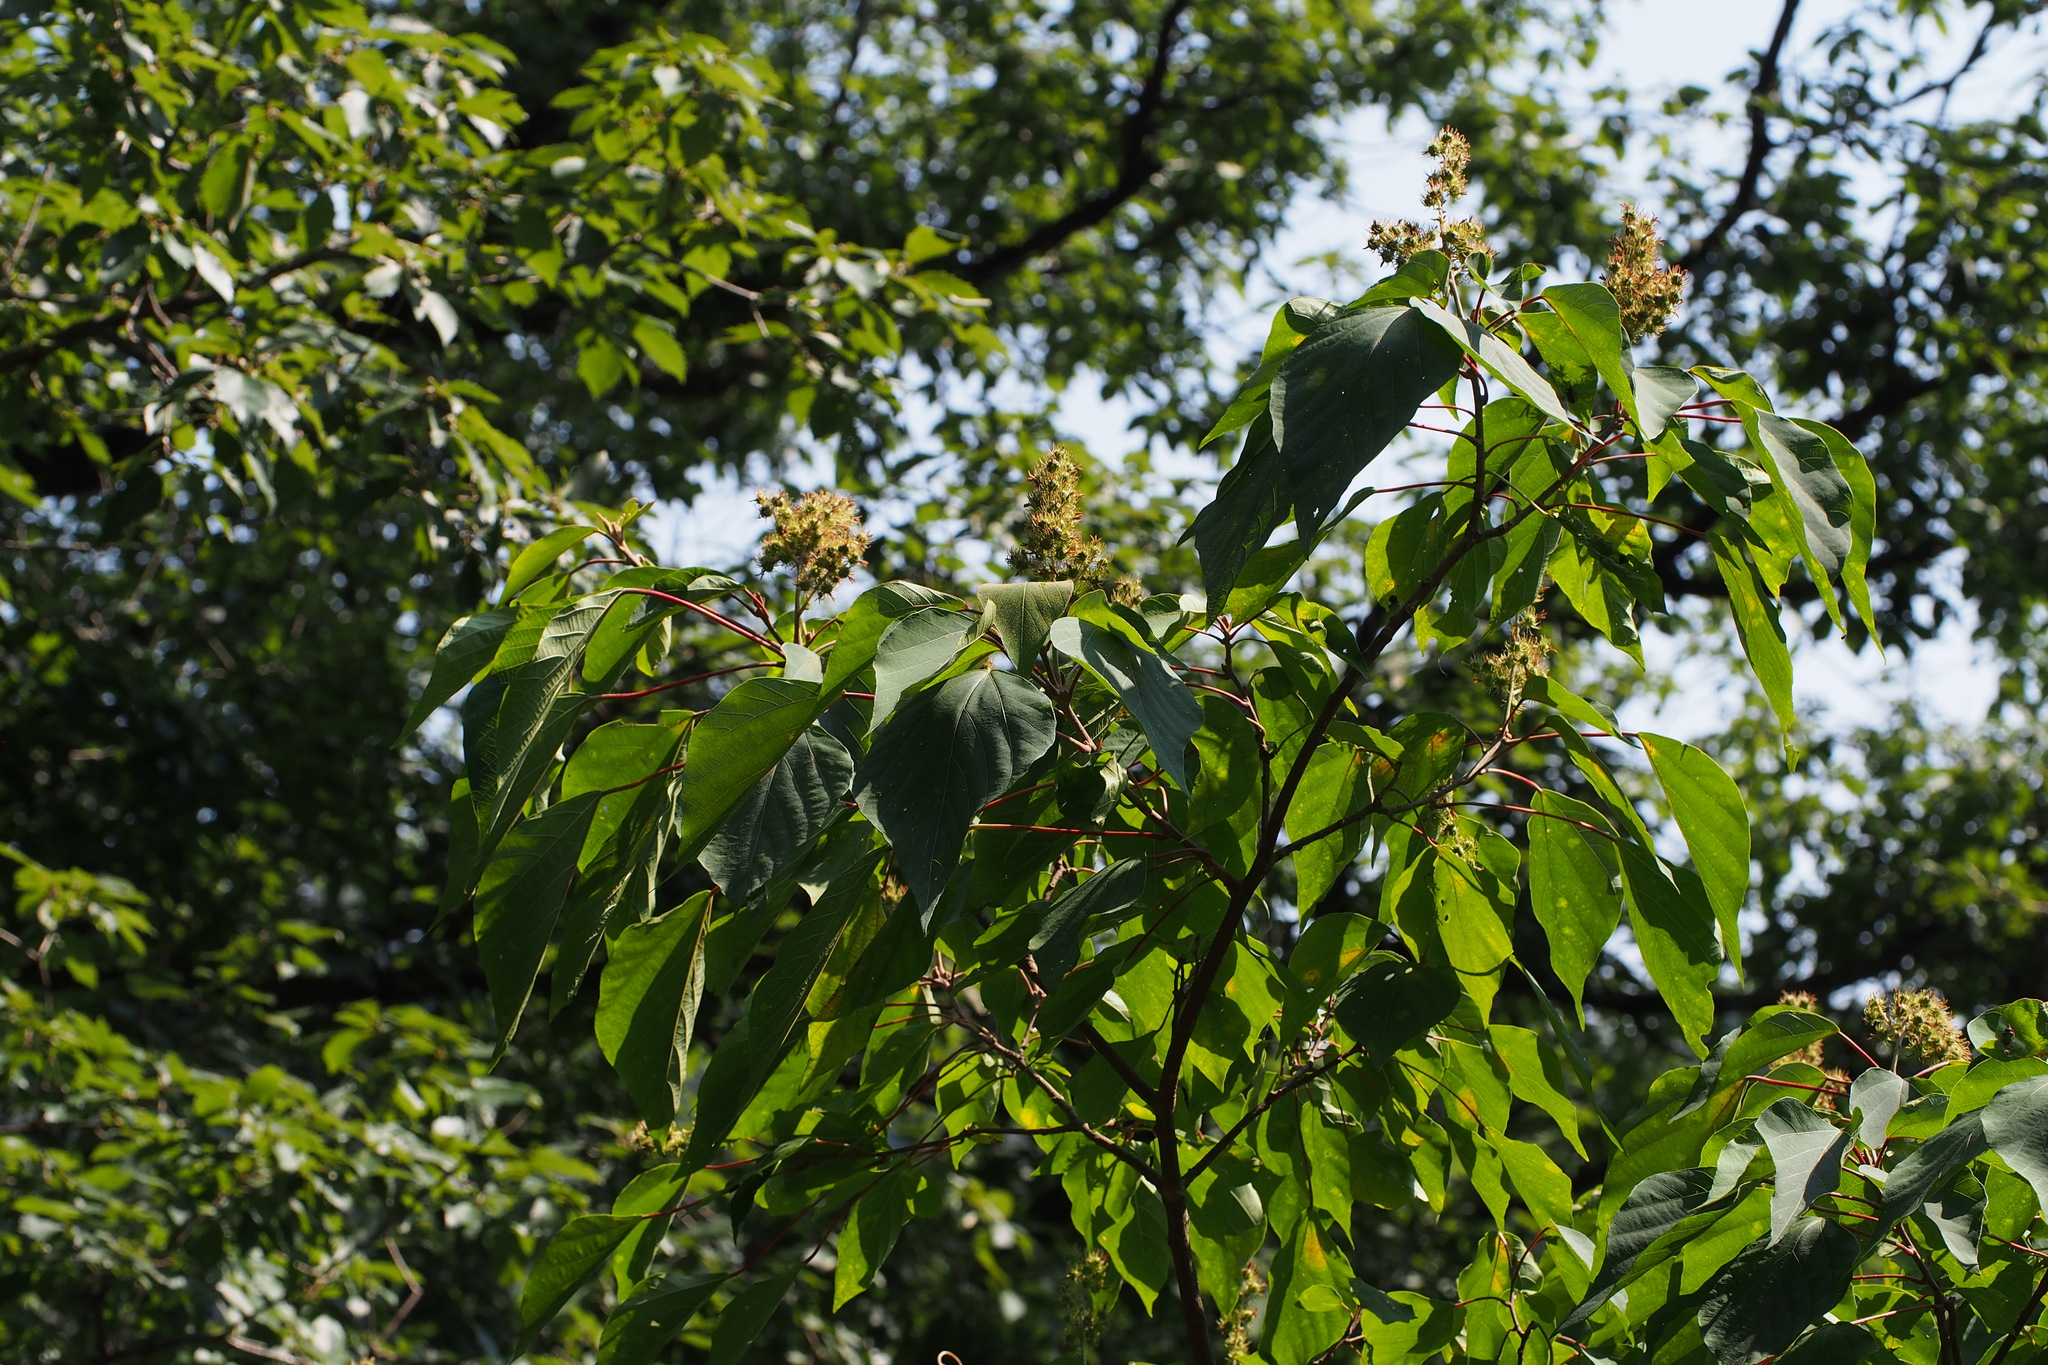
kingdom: Plantae
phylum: Tracheophyta
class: Magnoliopsida
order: Malpighiales
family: Euphorbiaceae
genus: Mallotus
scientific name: Mallotus japonicus
